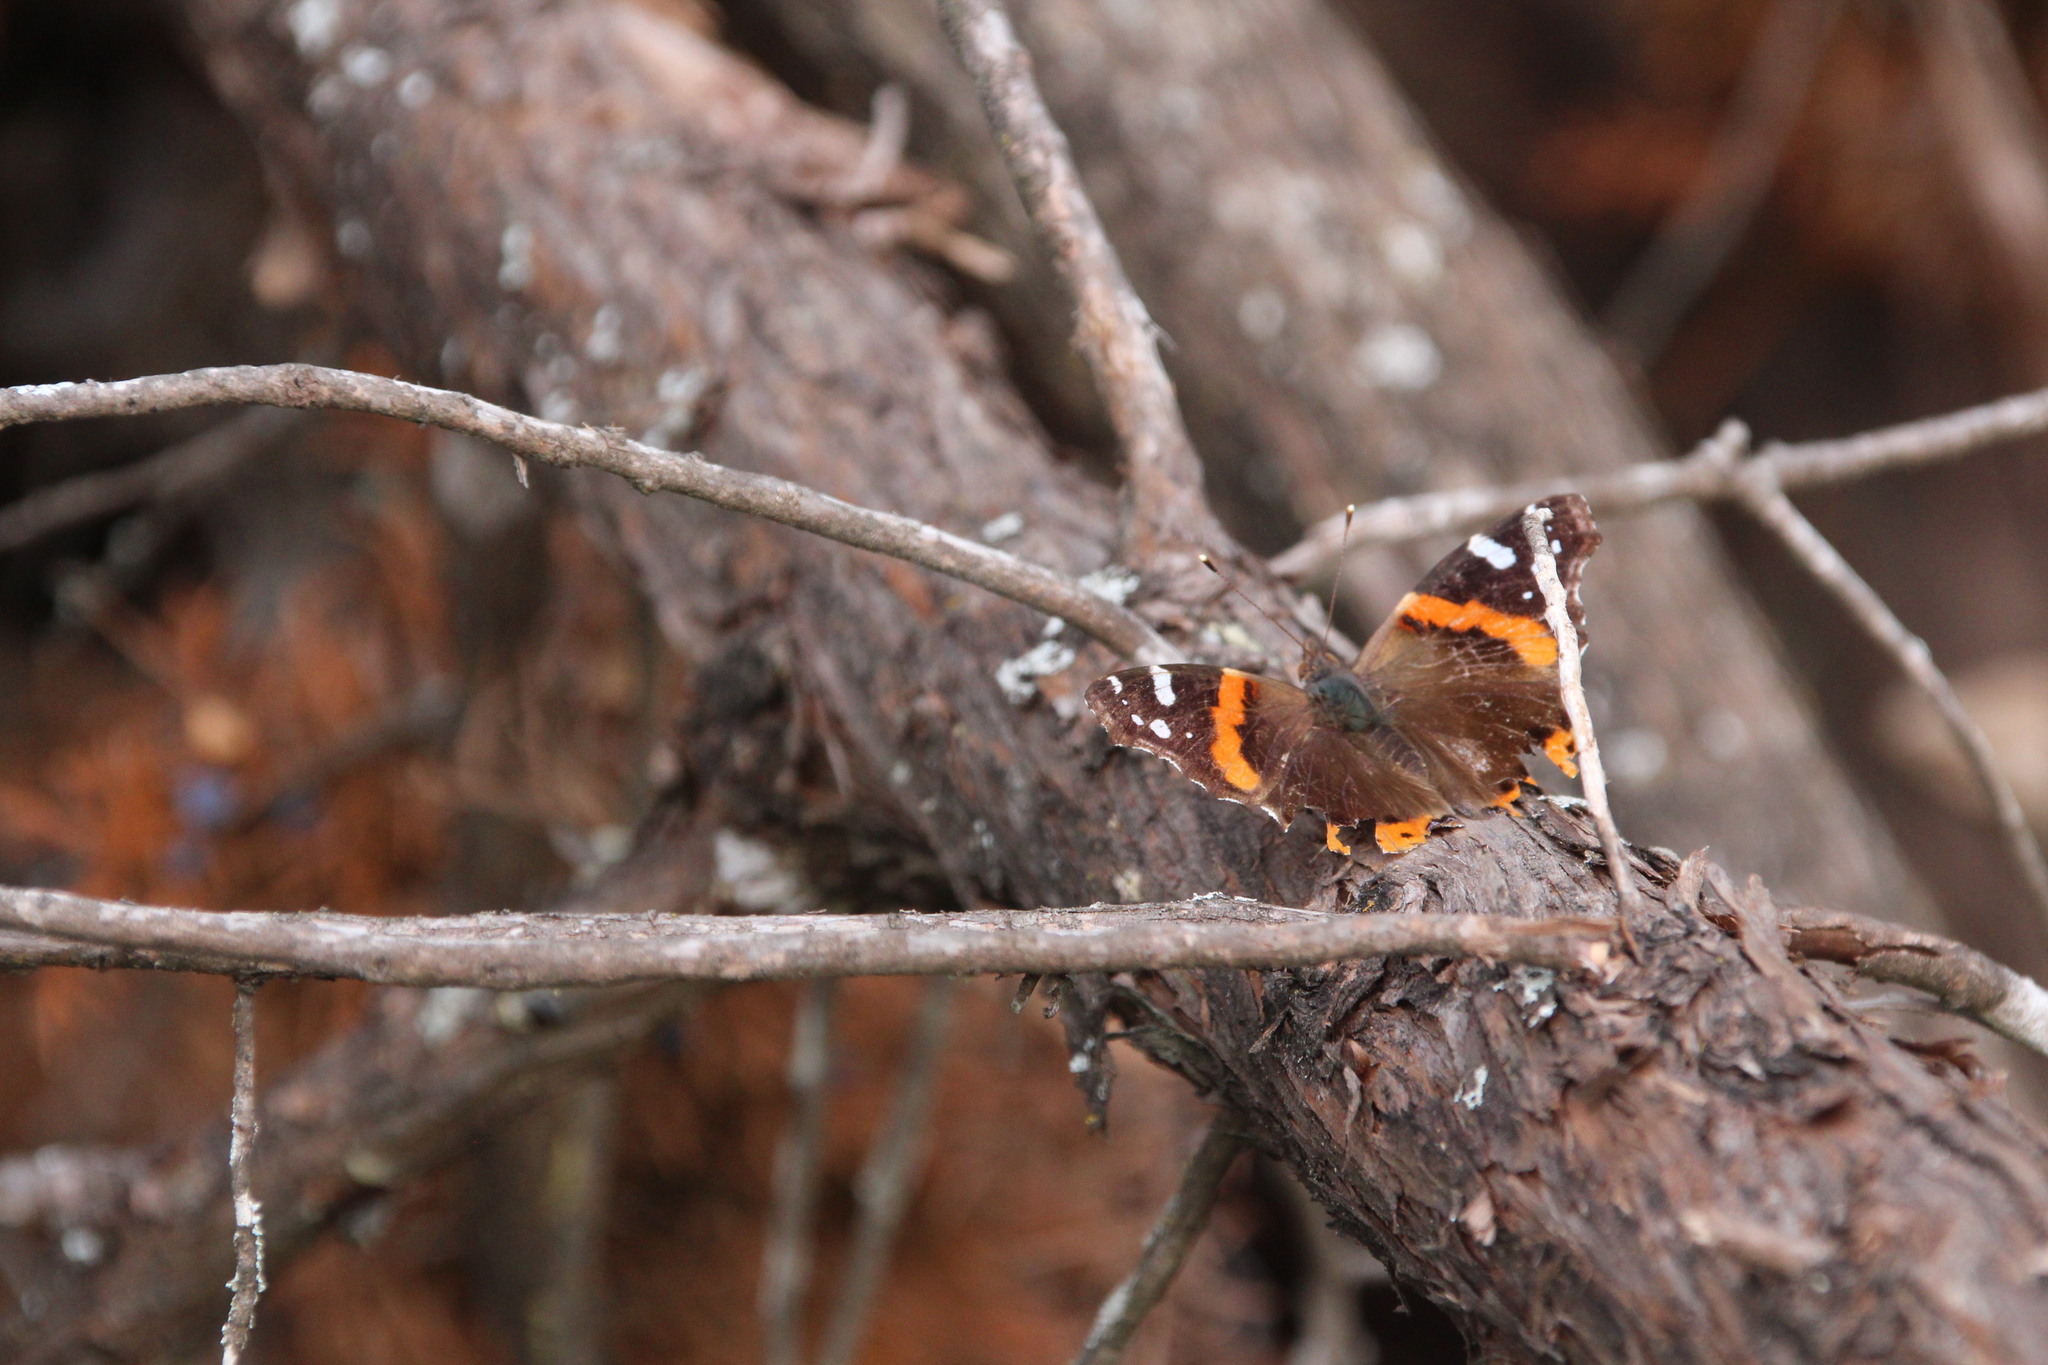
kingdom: Animalia
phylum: Arthropoda
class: Insecta
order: Lepidoptera
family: Nymphalidae
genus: Vanessa
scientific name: Vanessa atalanta
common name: Red admiral
